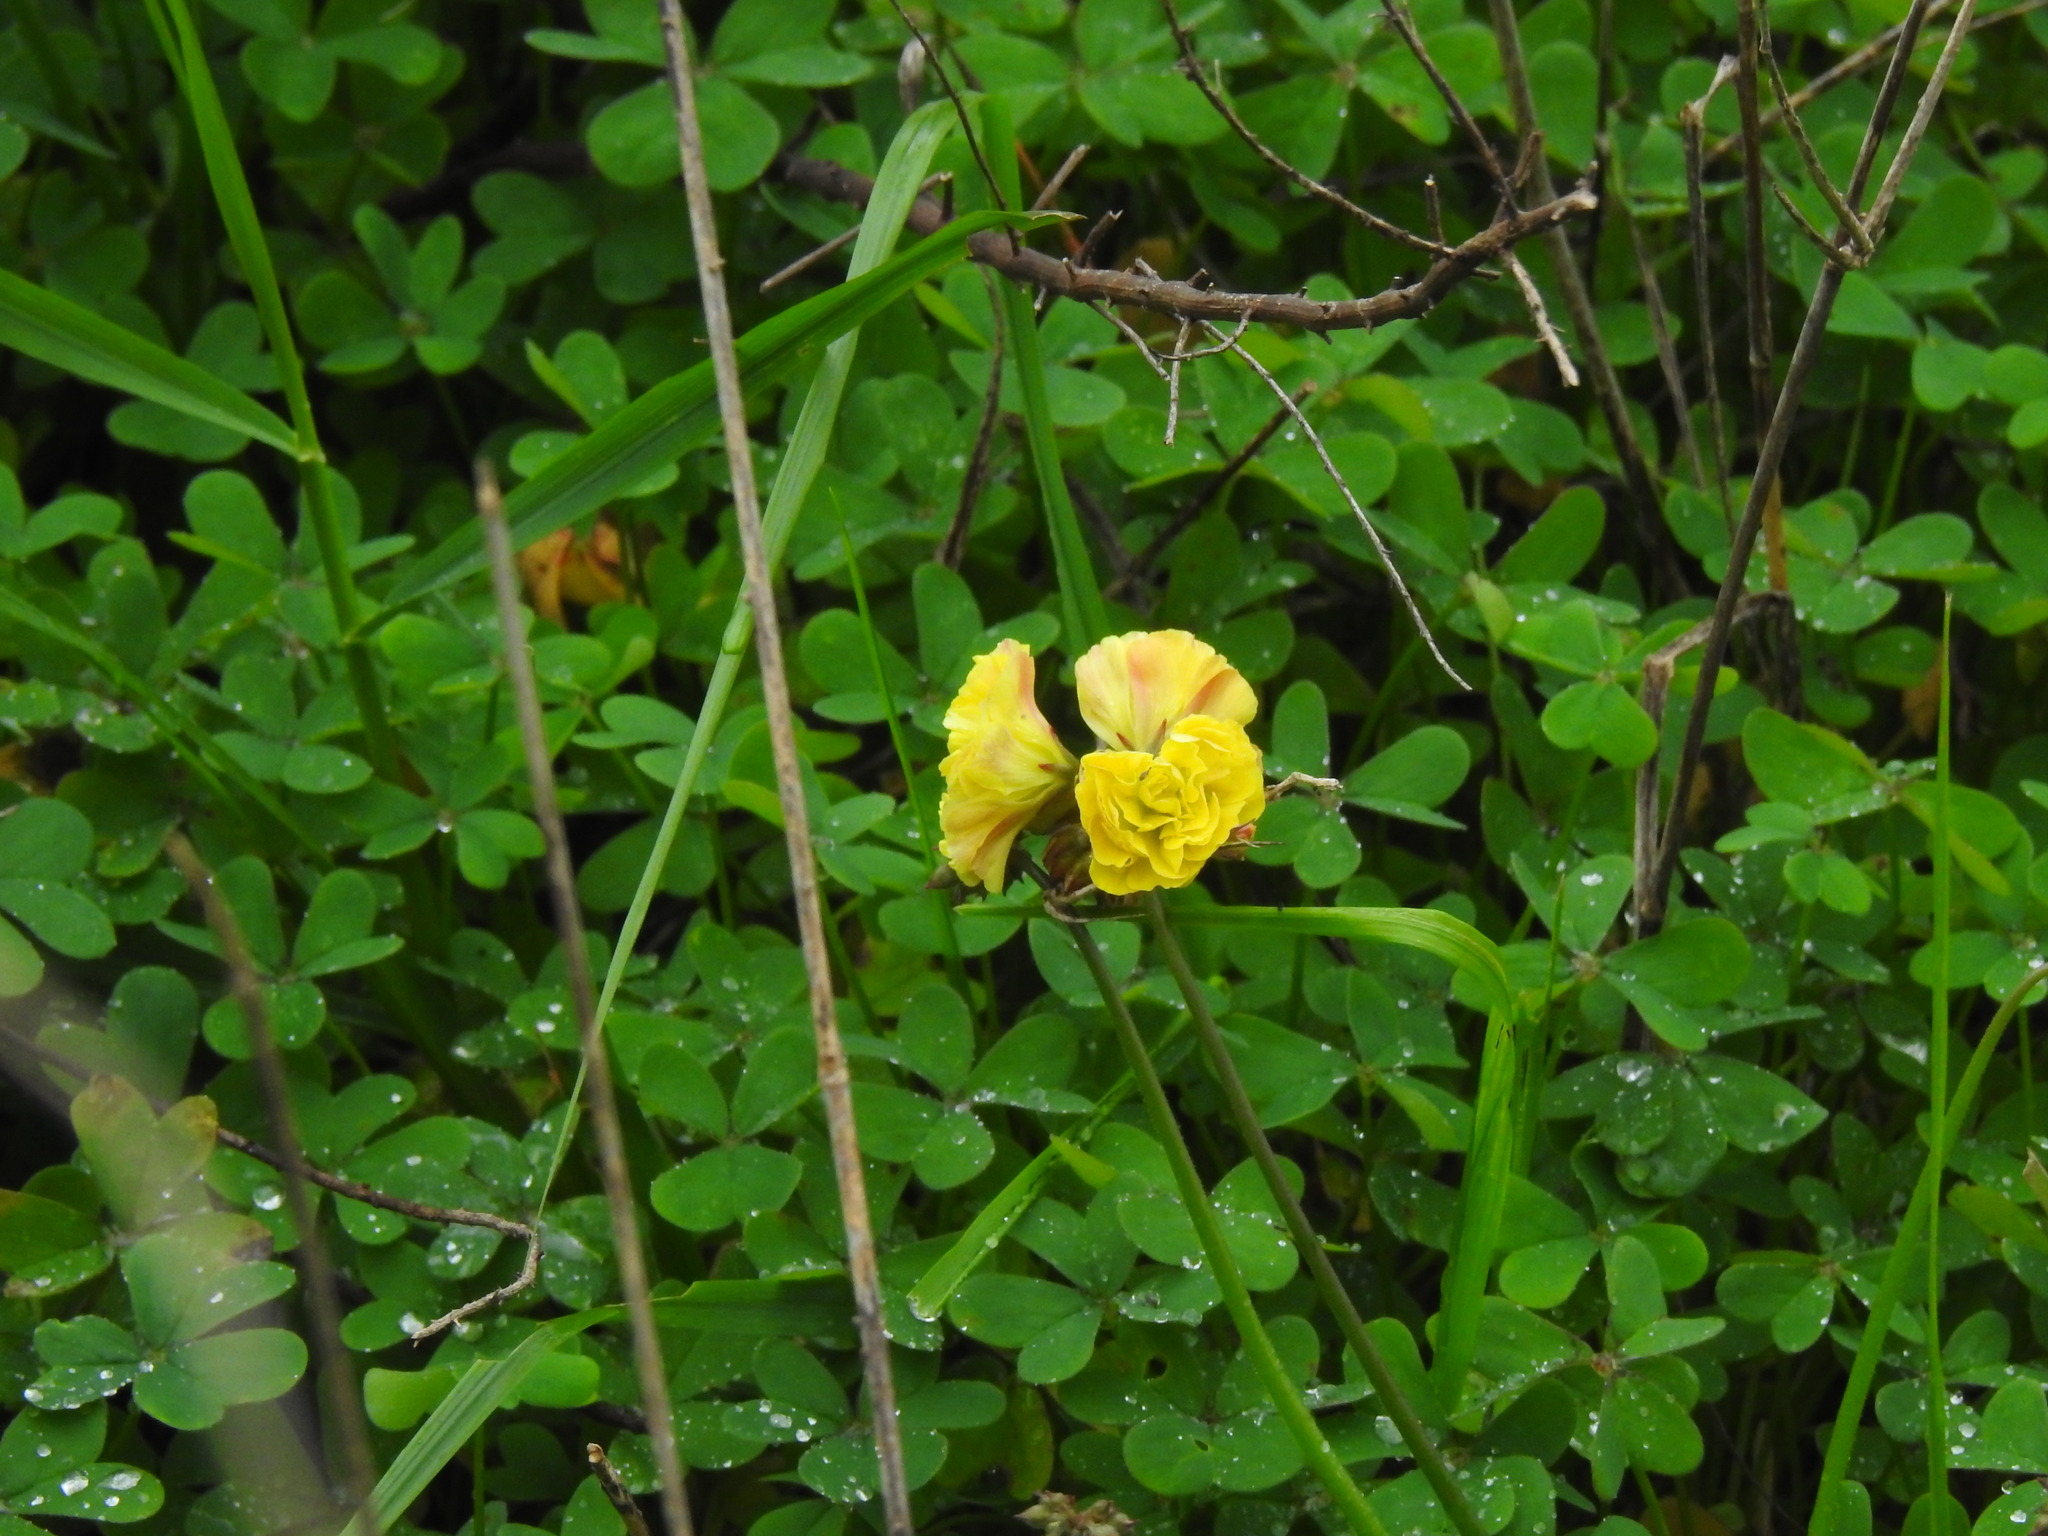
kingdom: Plantae
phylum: Tracheophyta
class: Magnoliopsida
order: Oxalidales
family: Oxalidaceae
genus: Oxalis
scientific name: Oxalis pes-caprae
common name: Bermuda-buttercup
